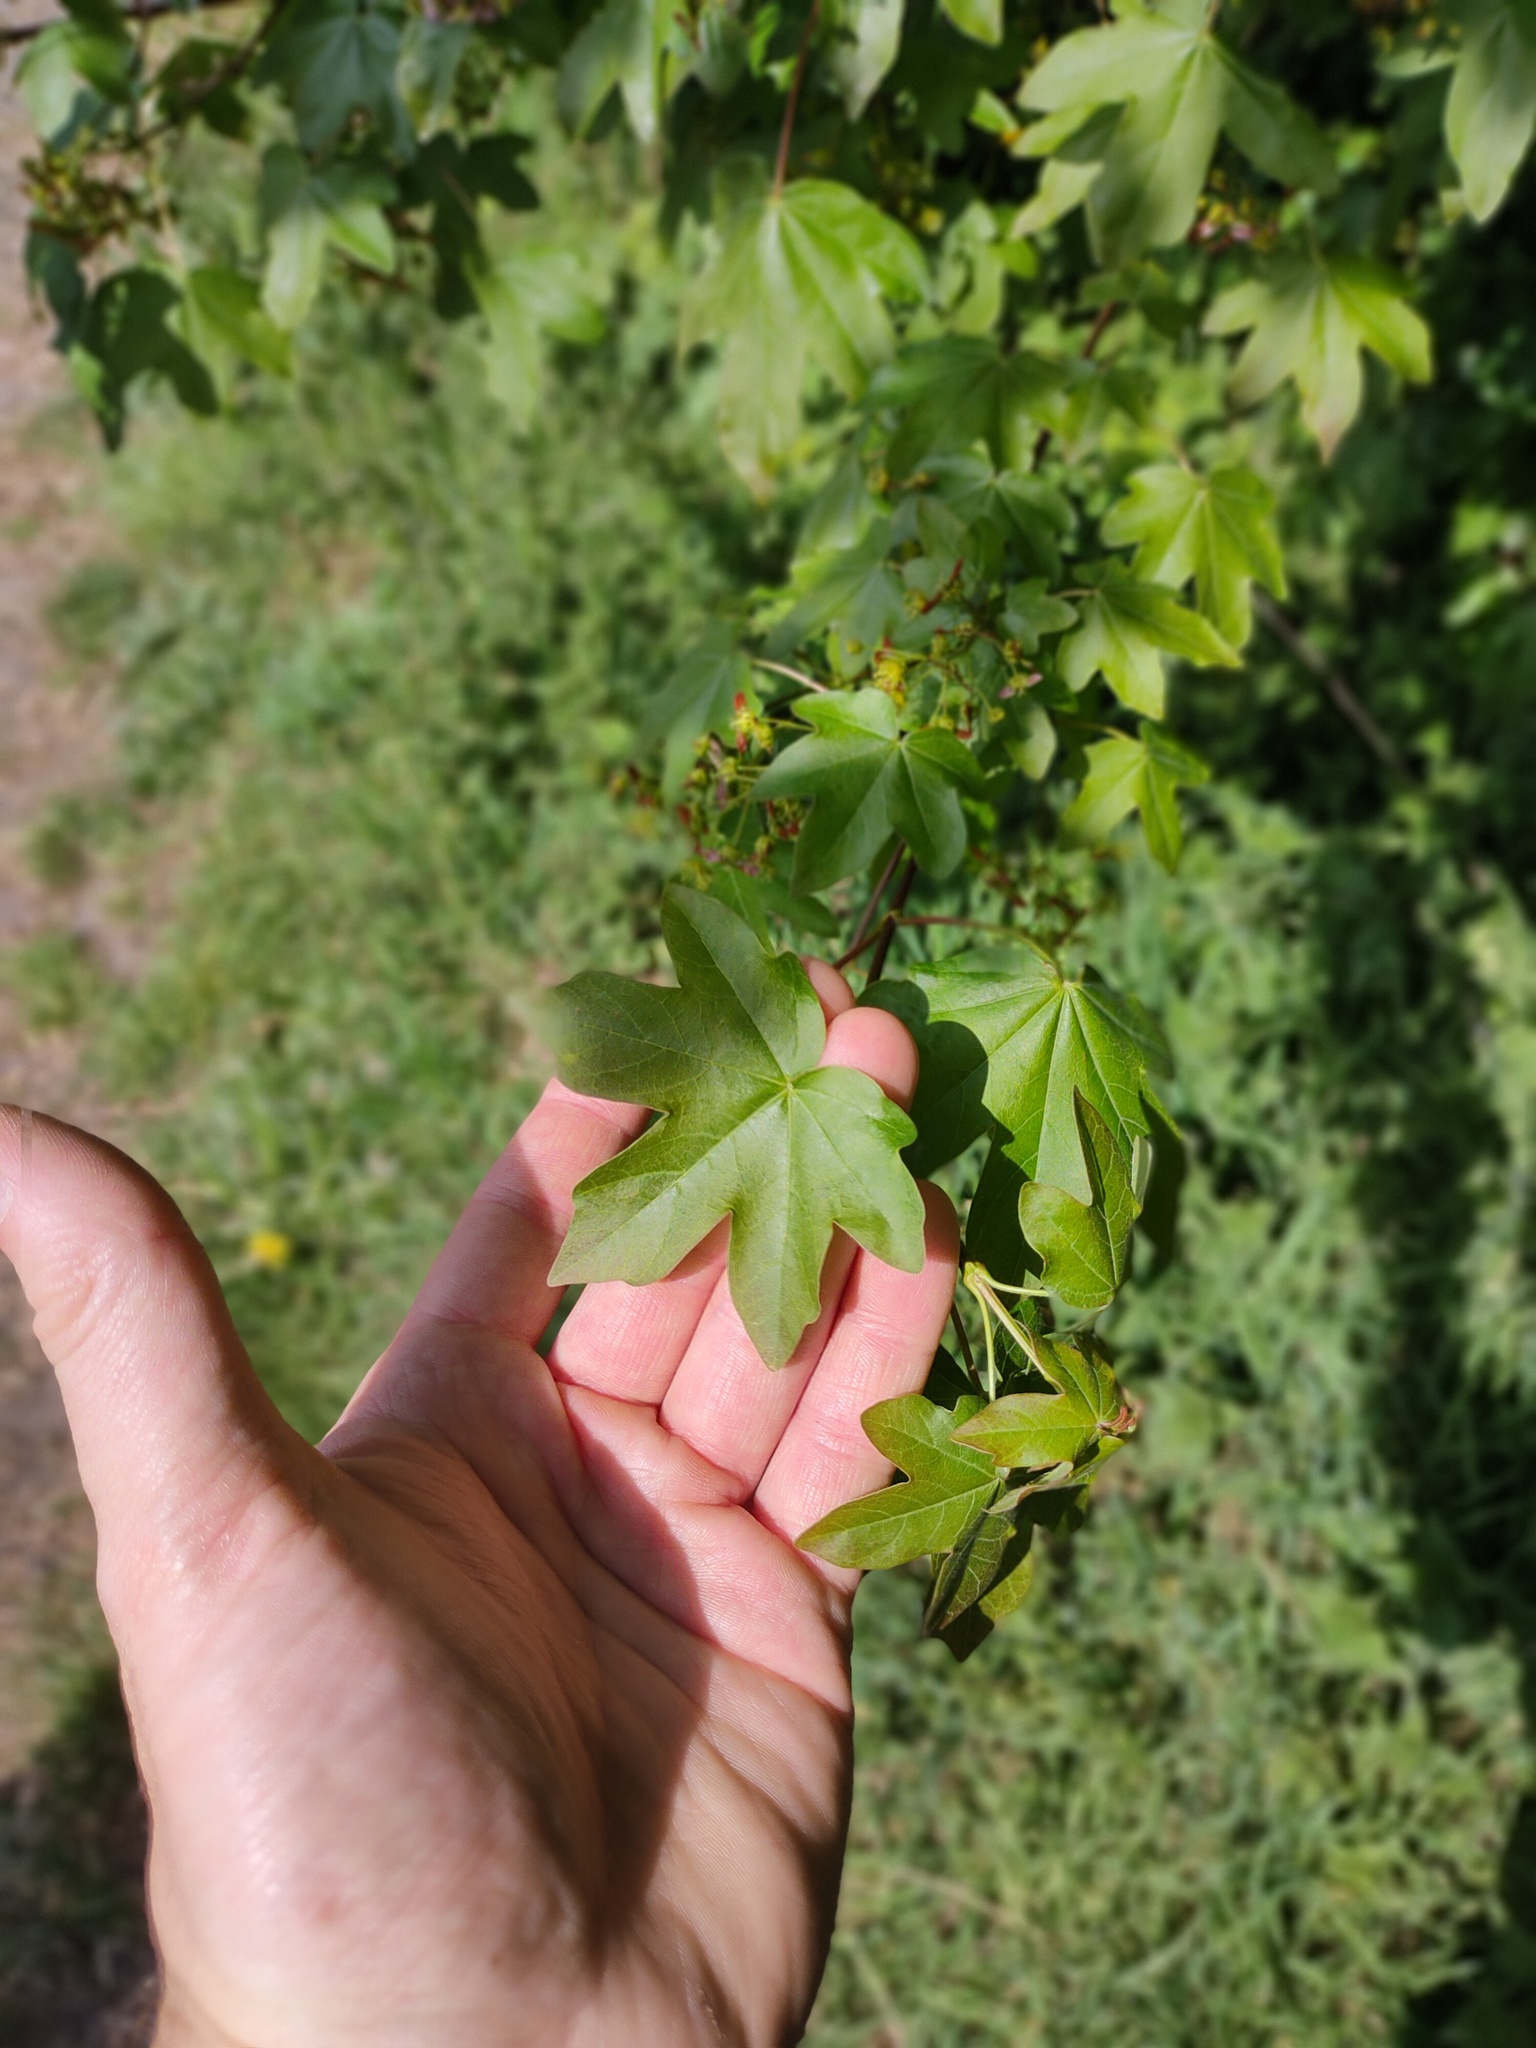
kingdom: Plantae
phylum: Tracheophyta
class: Magnoliopsida
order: Sapindales
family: Sapindaceae
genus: Acer
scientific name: Acer campestre
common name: Field maple
